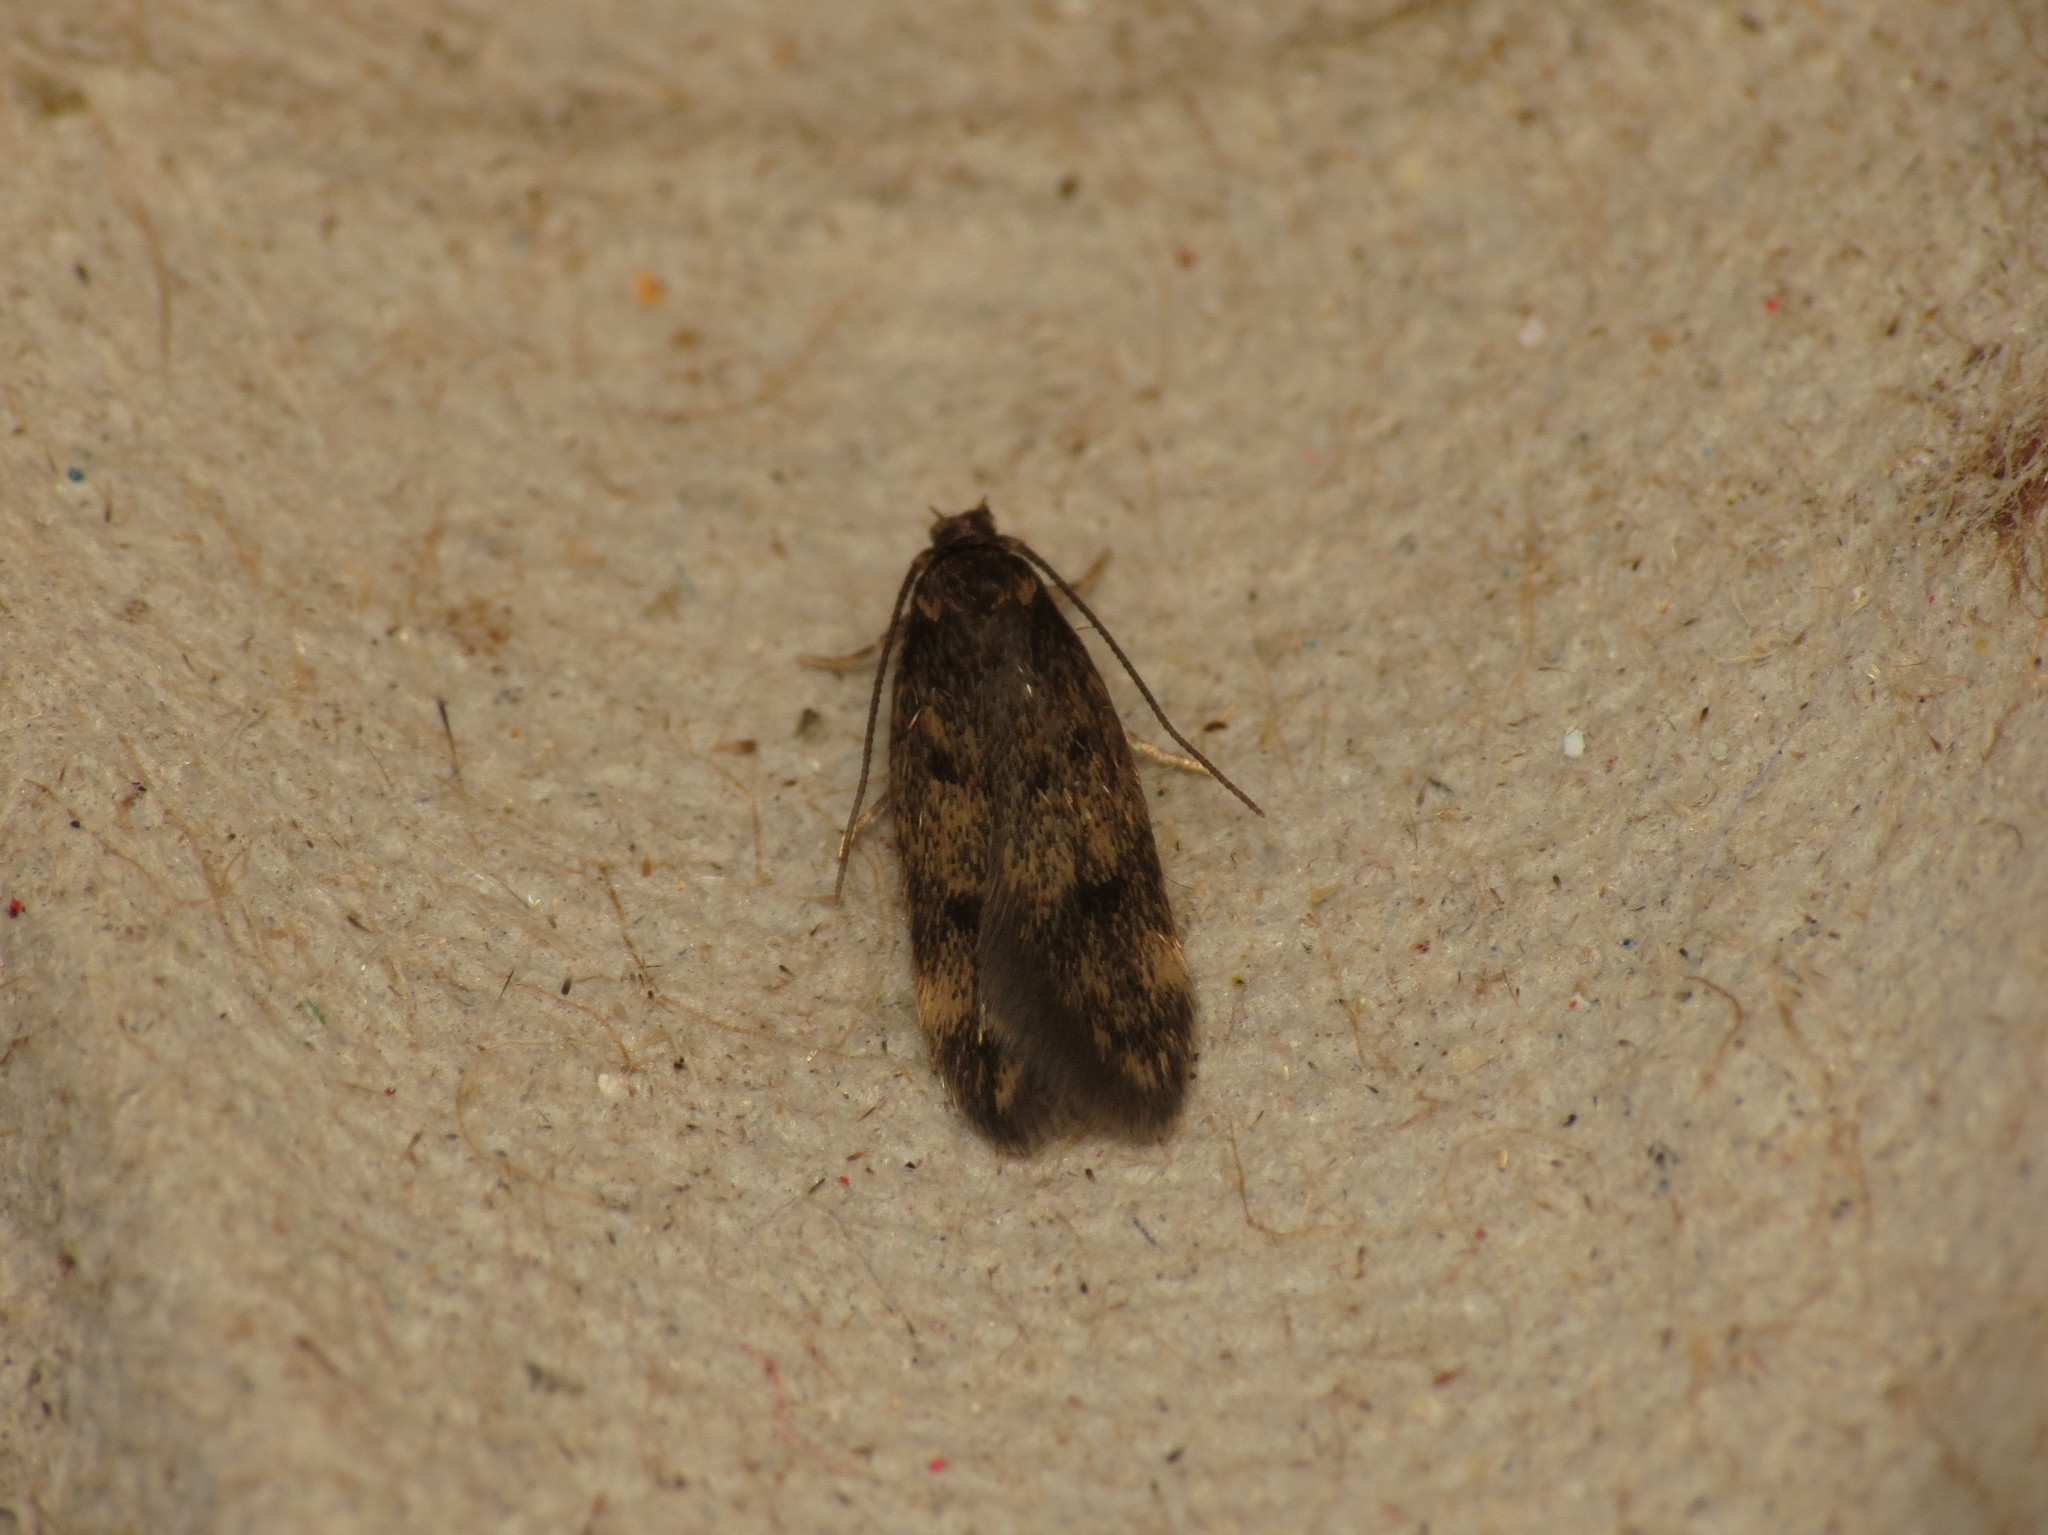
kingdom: Animalia
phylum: Arthropoda
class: Insecta
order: Lepidoptera
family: Oecophoridae
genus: Borkhausenia
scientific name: Borkhausenia fuscescens
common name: Small dingy tubic
